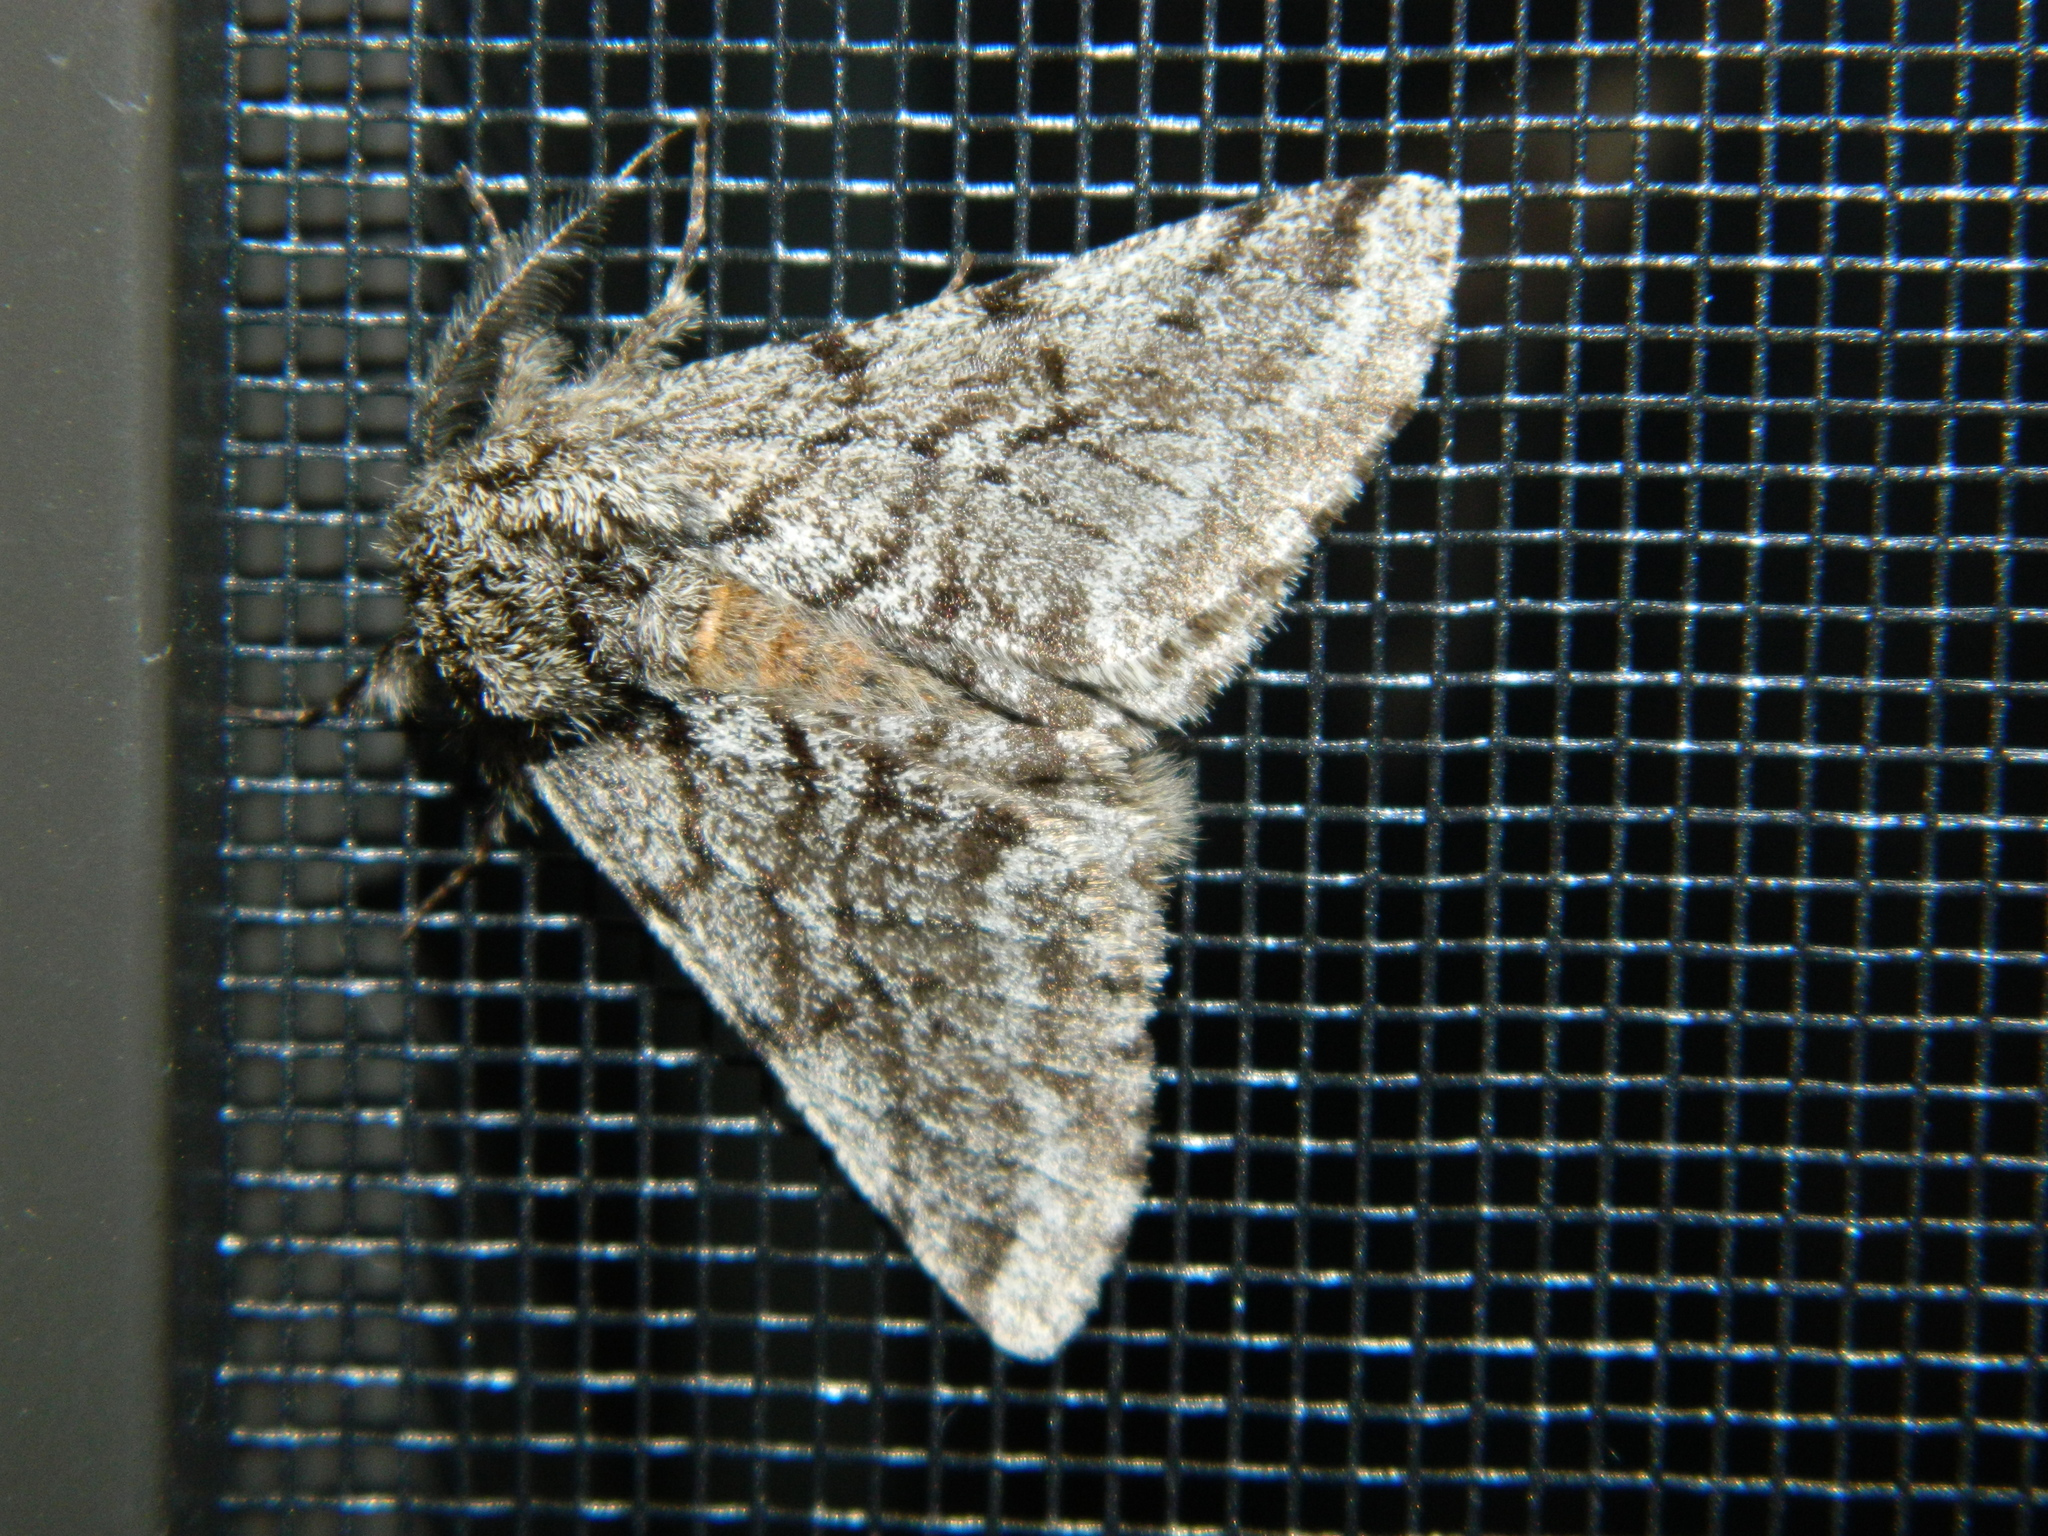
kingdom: Animalia
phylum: Arthropoda
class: Insecta
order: Lepidoptera
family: Geometridae
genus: Lycia
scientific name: Lycia ursaria
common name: Stout spanworm
